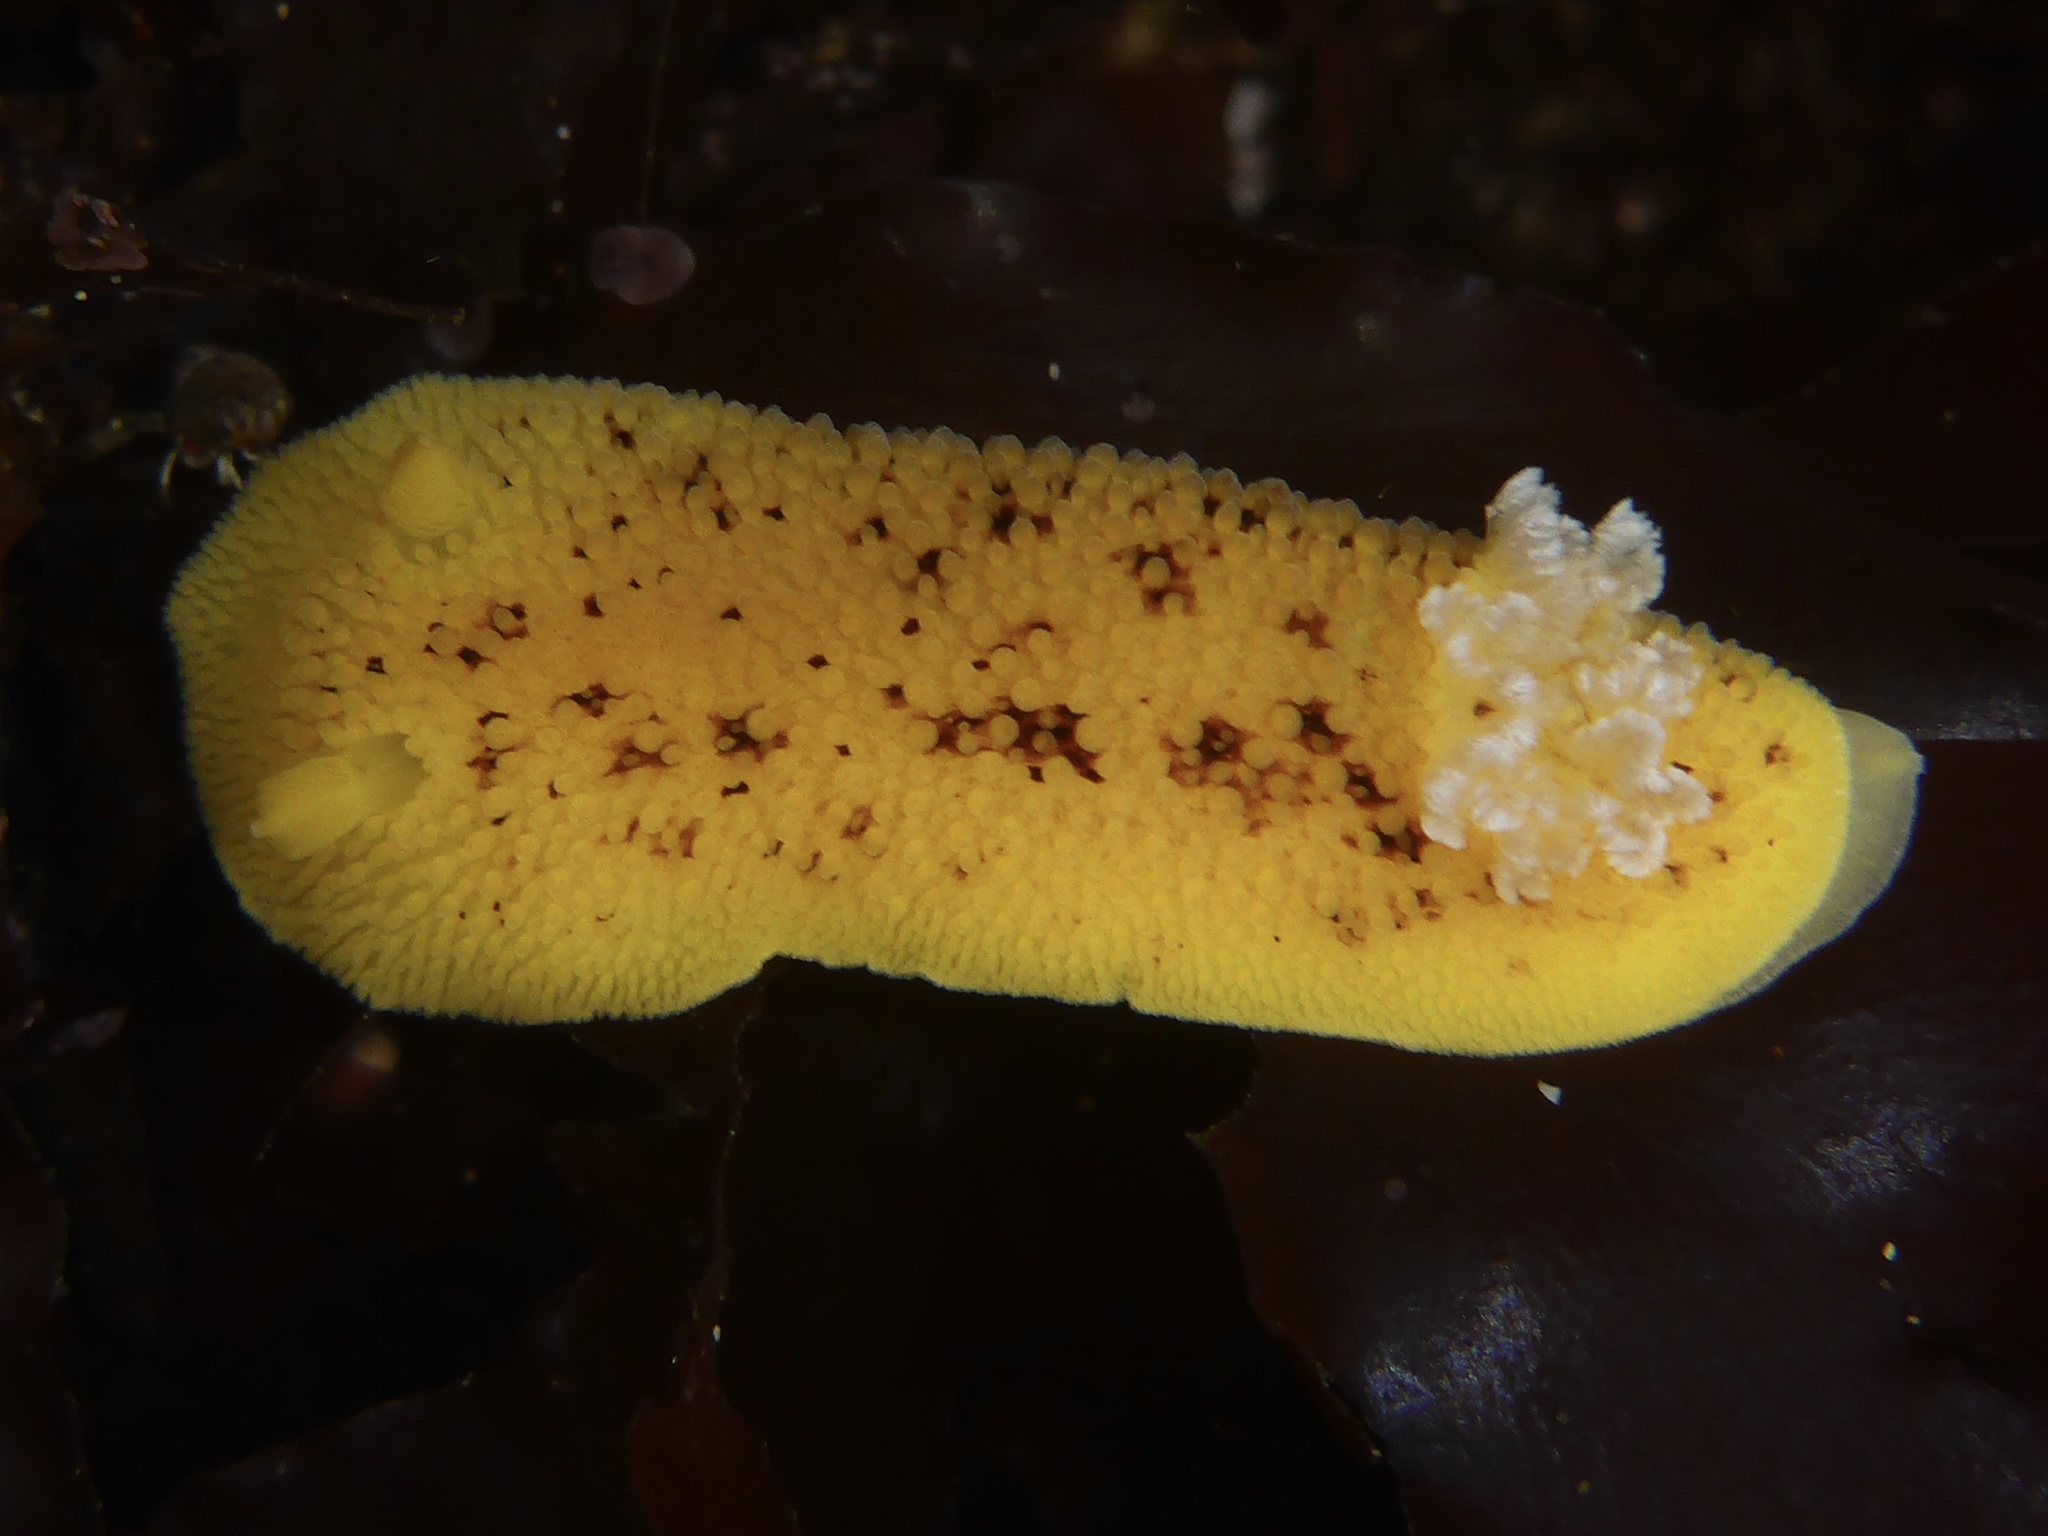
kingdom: Animalia
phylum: Mollusca
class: Gastropoda
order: Nudibranchia
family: Discodorididae
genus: Peltodoris
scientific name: Peltodoris nobilis
